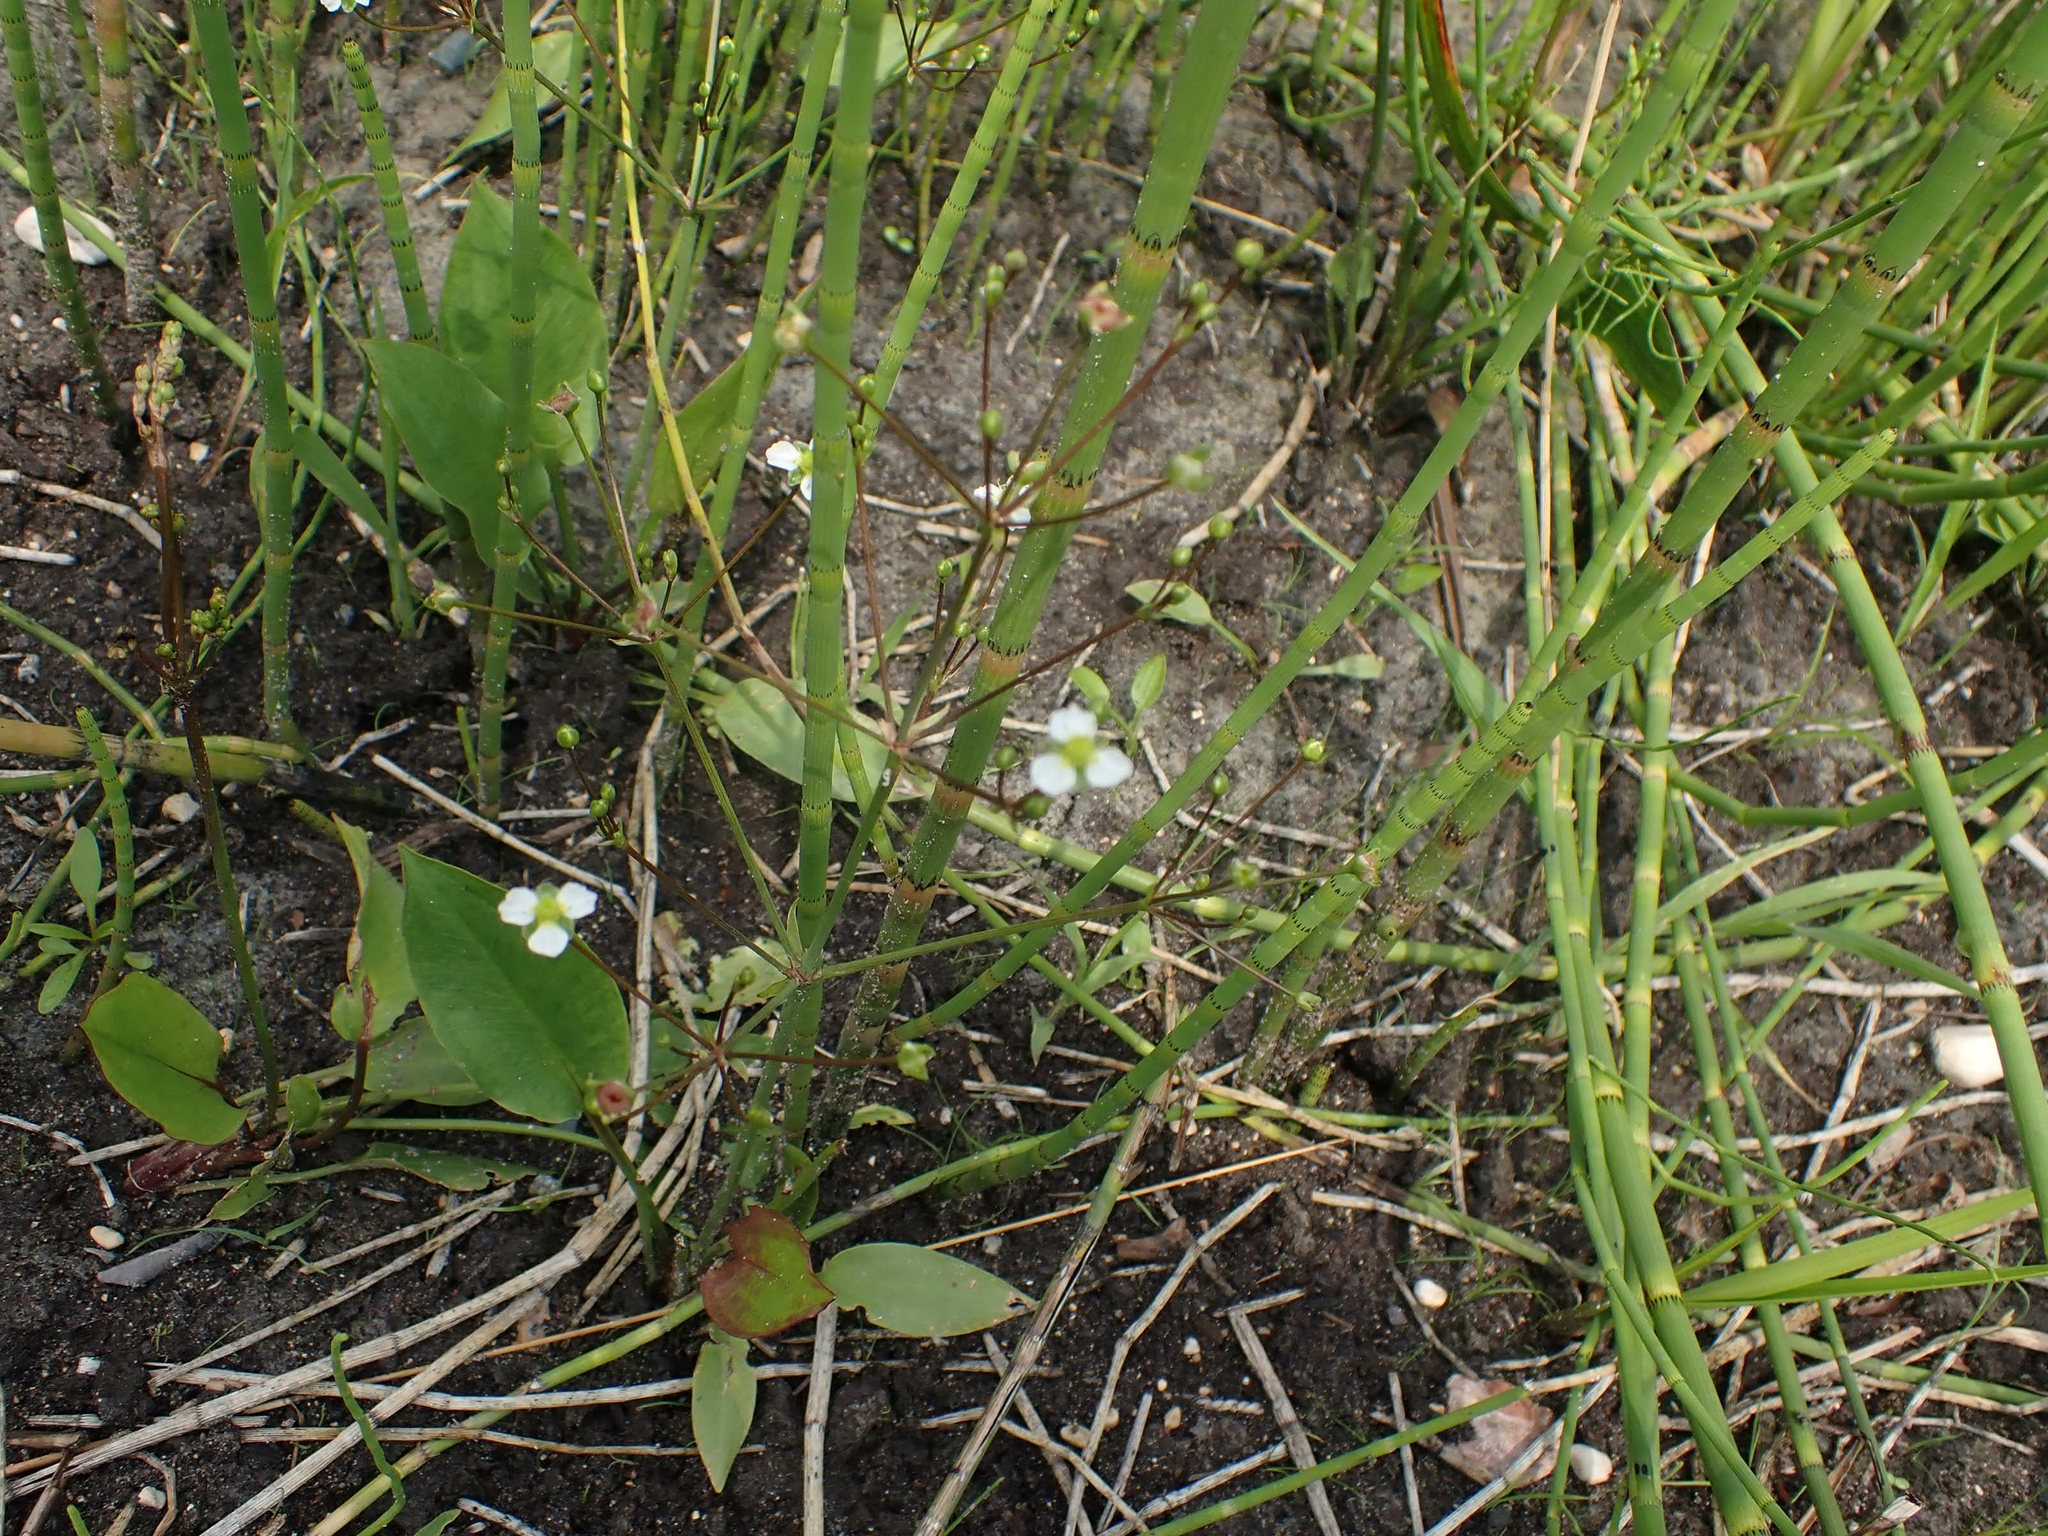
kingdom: Plantae
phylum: Tracheophyta
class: Liliopsida
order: Alismatales
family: Alismataceae
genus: Alisma
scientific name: Alisma triviale
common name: Northern water-plantain
